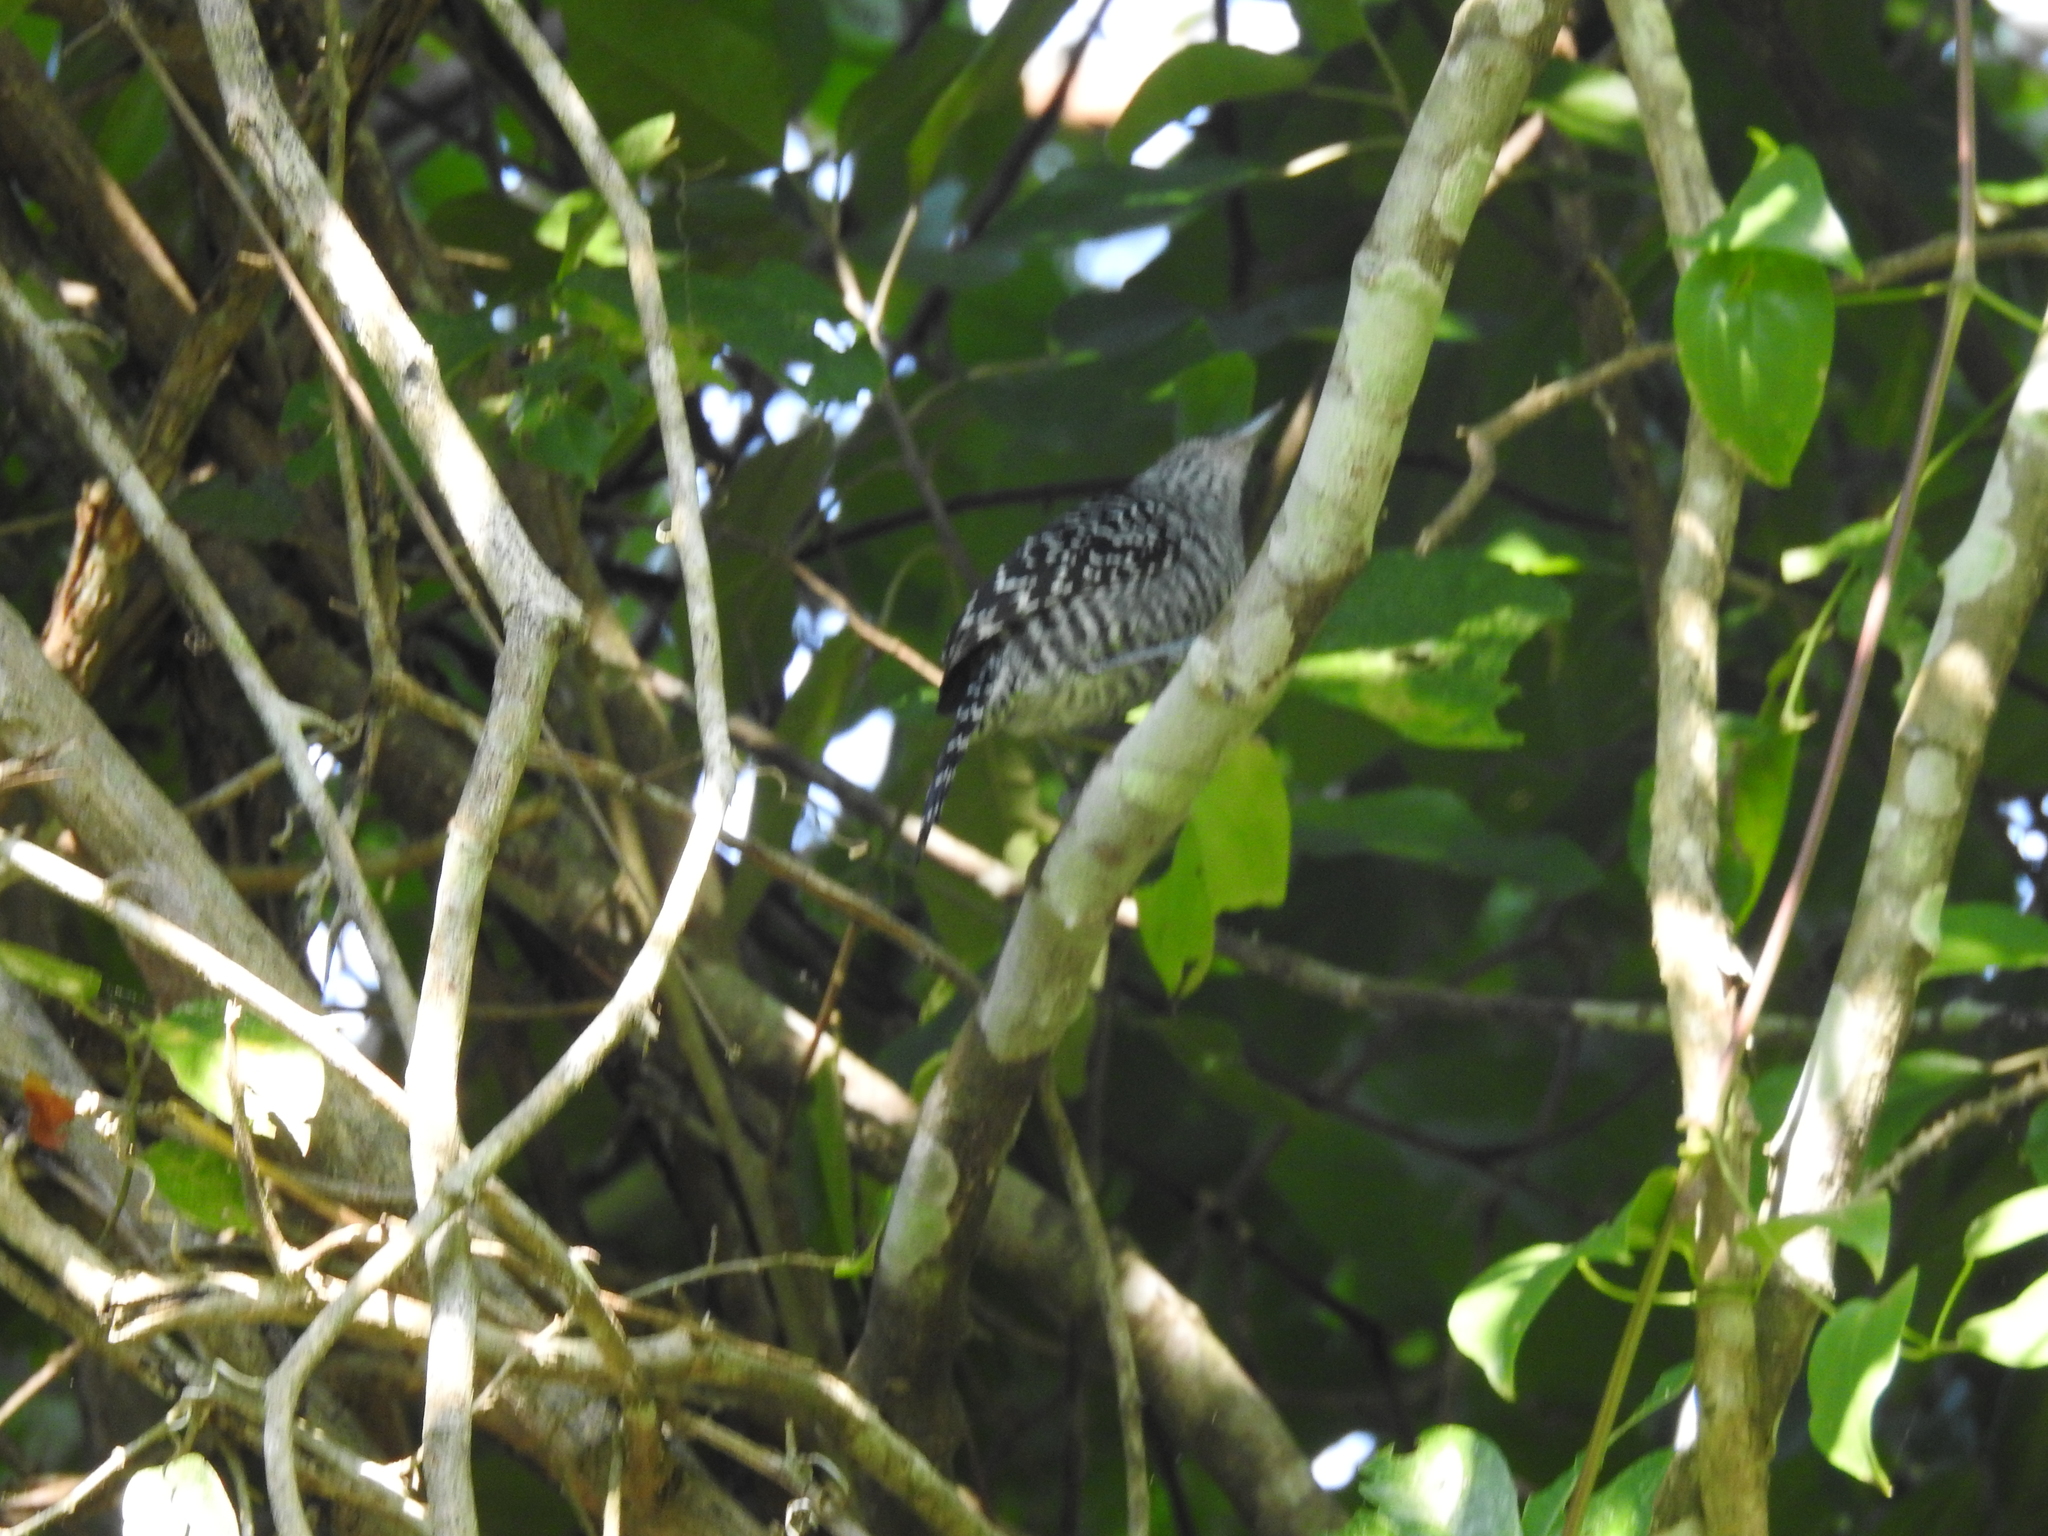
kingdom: Animalia
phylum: Chordata
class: Aves
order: Passeriformes
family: Thamnophilidae
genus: Thamnophilus
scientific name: Thamnophilus doliatus
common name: Barred antshrike
